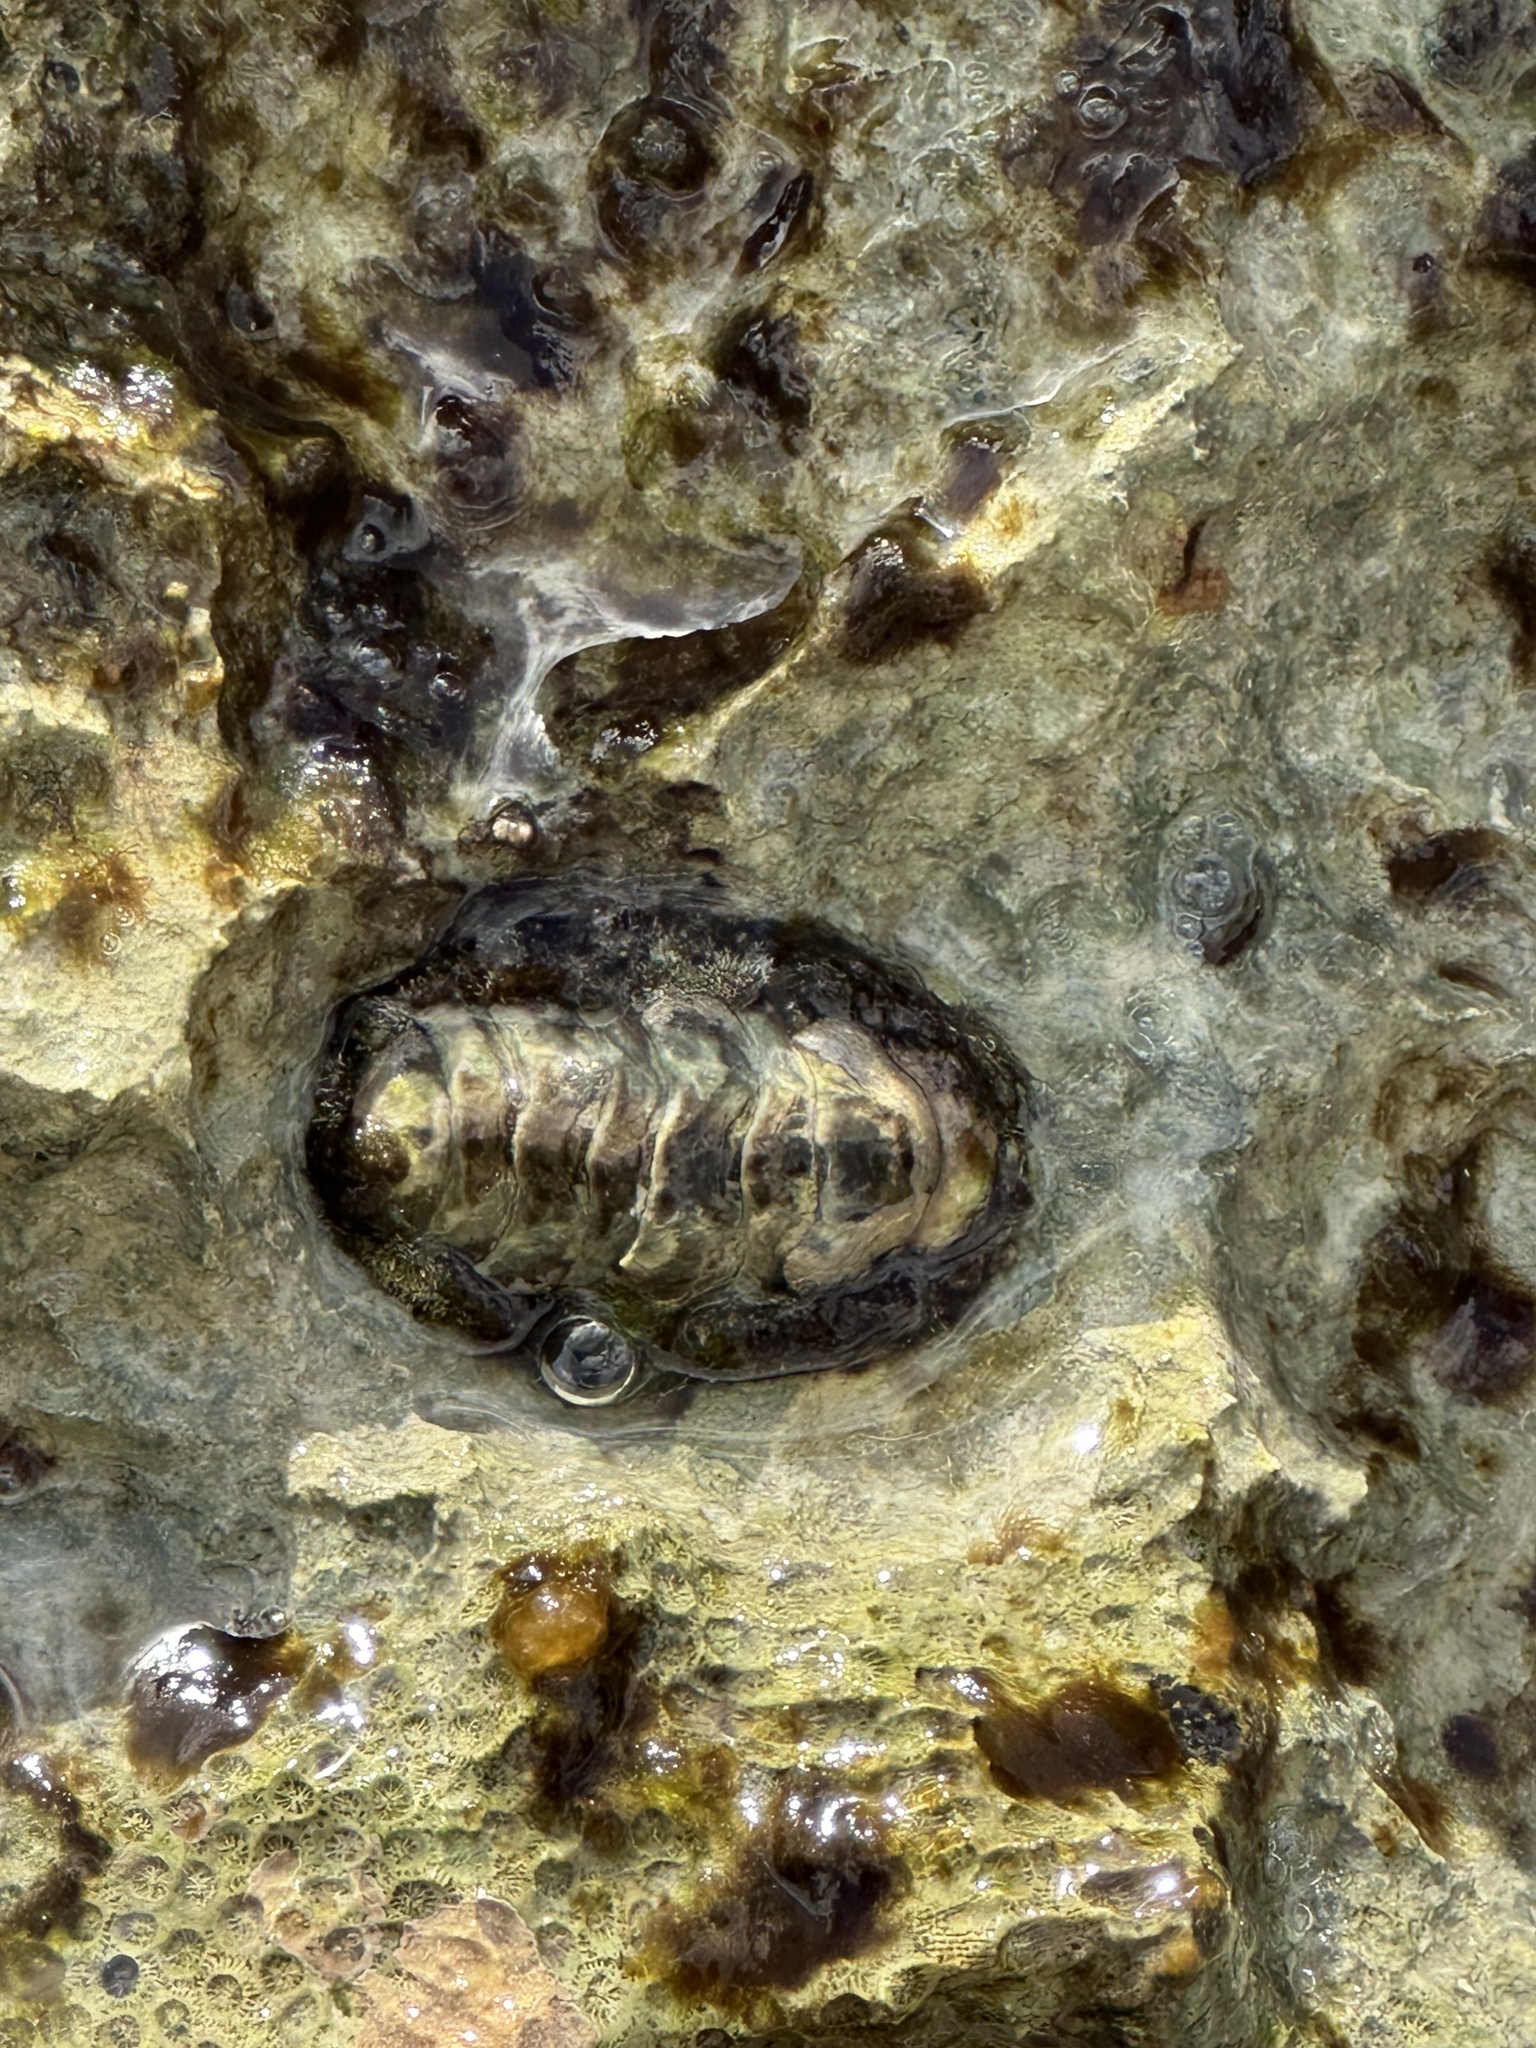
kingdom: Animalia
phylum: Mollusca
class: Polyplacophora
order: Chitonida
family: Chitonidae
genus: Acanthopleura
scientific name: Acanthopleura granulata
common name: West indian fuzzy chiton
